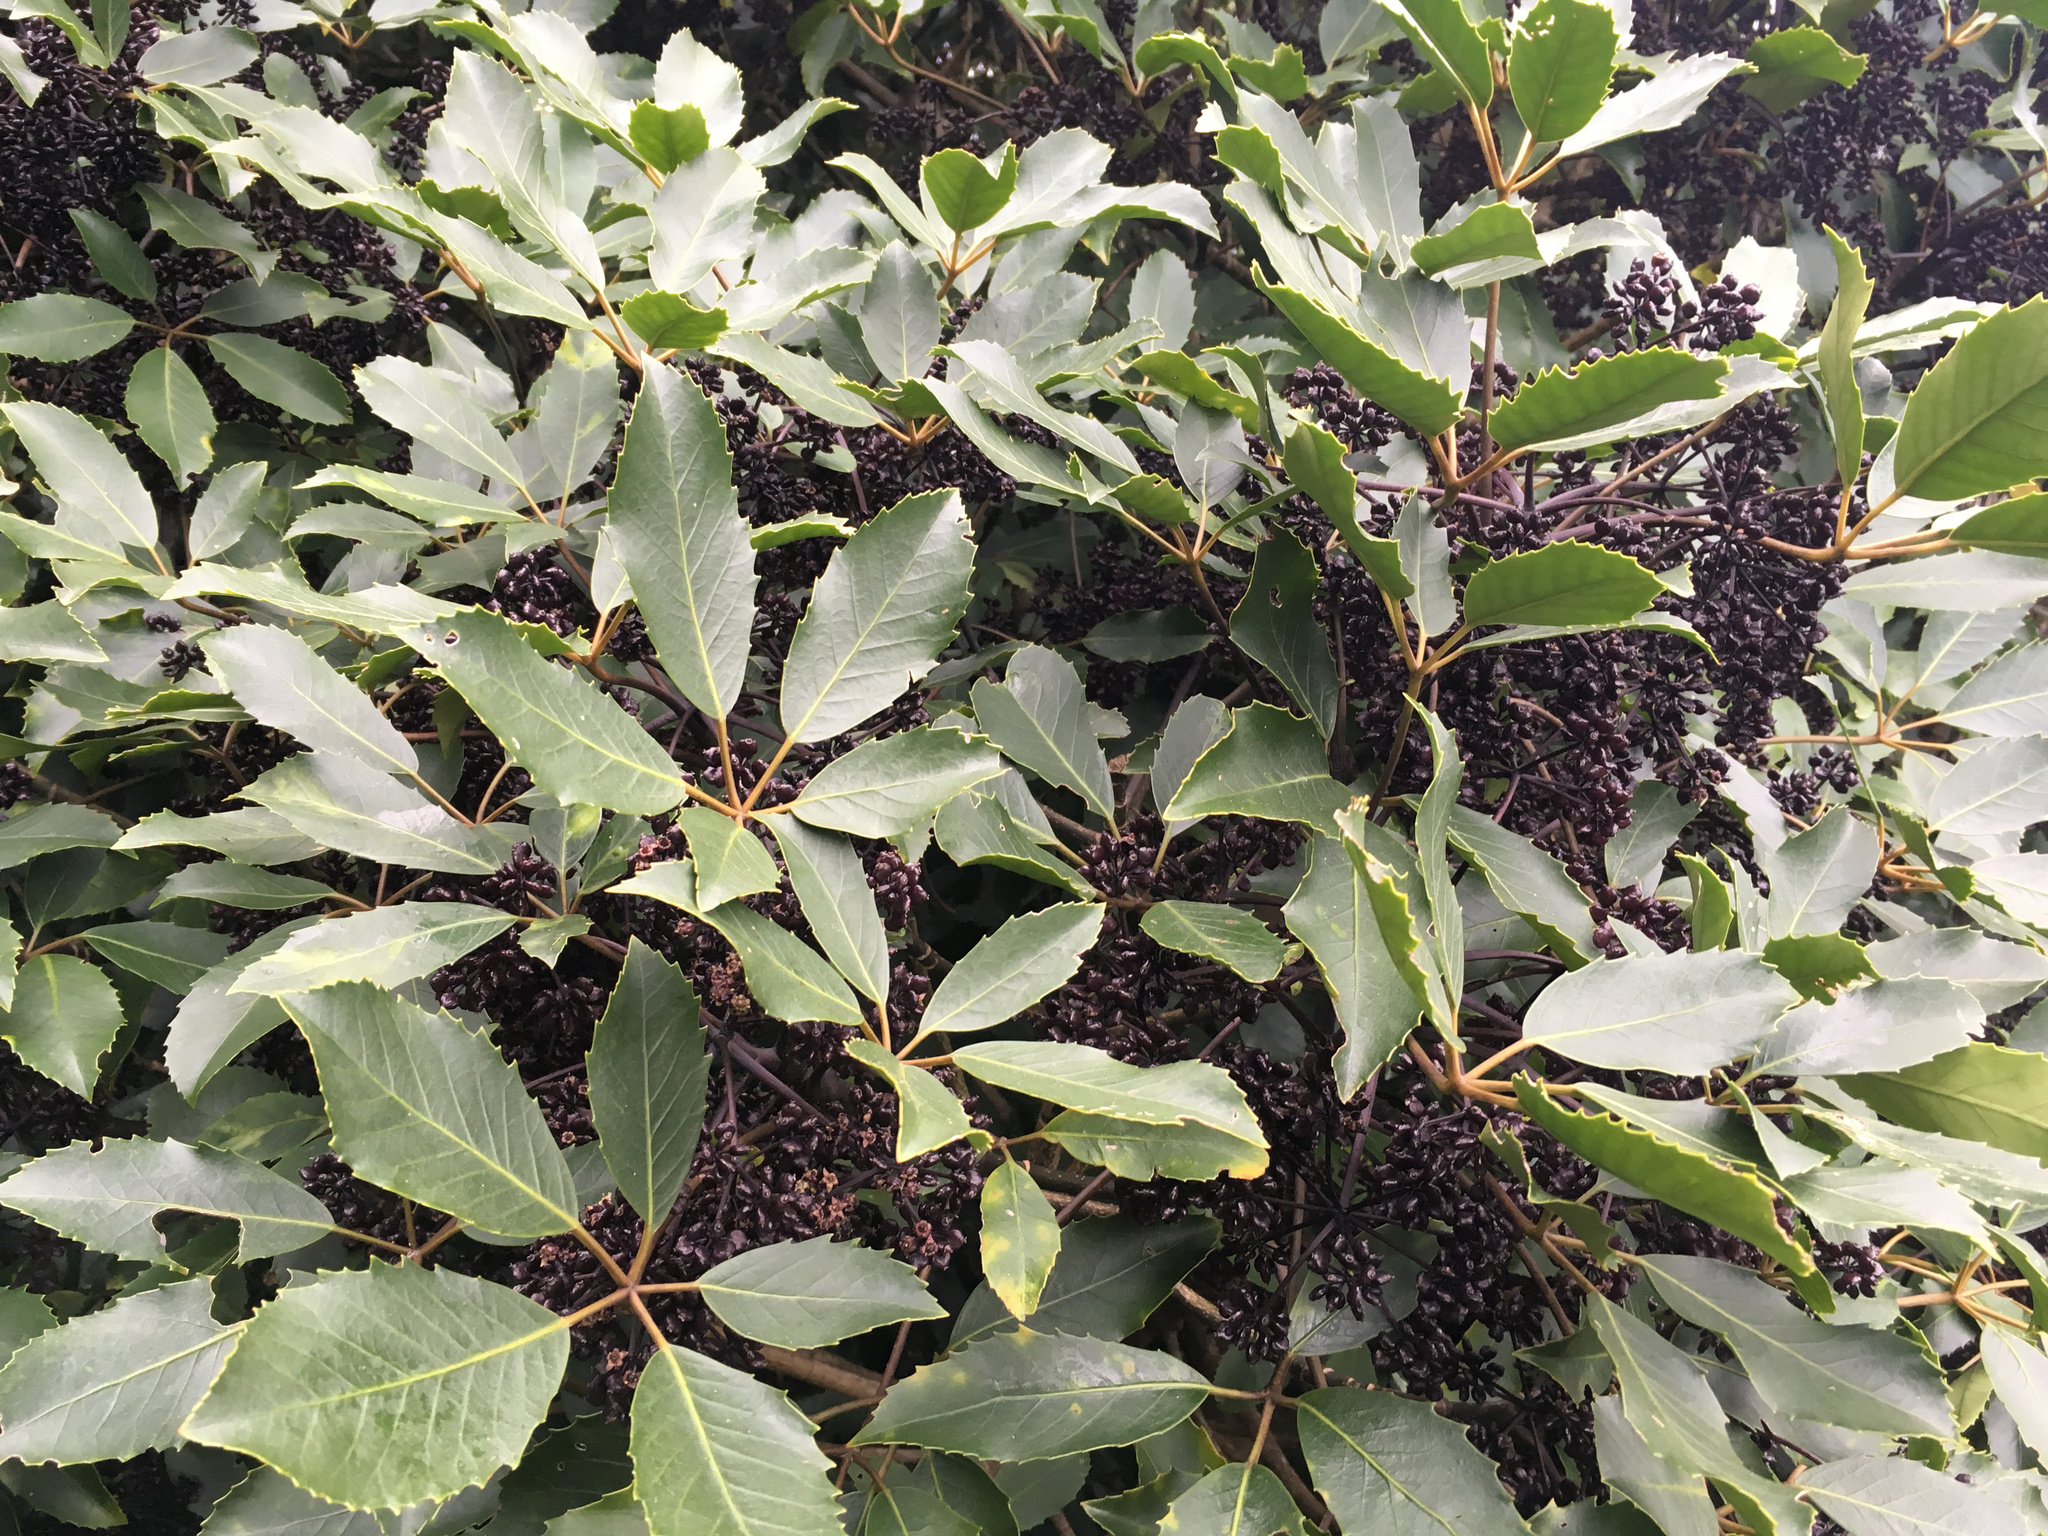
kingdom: Plantae
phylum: Tracheophyta
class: Magnoliopsida
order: Apiales
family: Araliaceae
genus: Neopanax
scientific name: Neopanax arboreus
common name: Five-fingers
